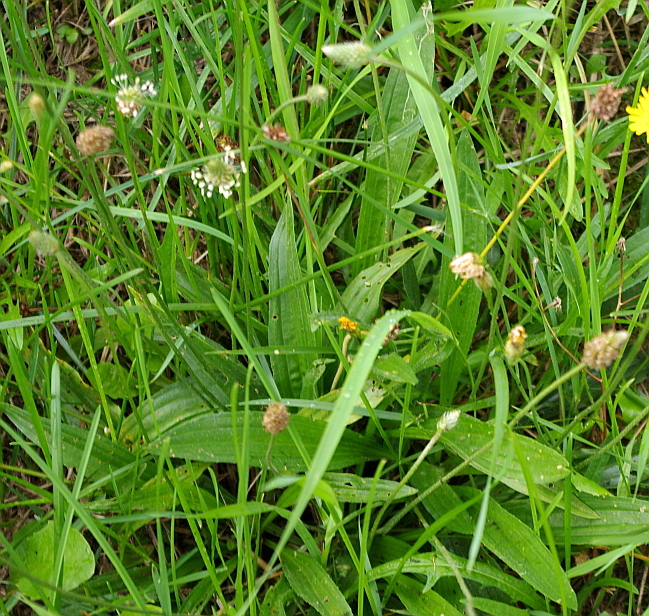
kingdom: Plantae
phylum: Tracheophyta
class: Magnoliopsida
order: Lamiales
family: Plantaginaceae
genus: Plantago
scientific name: Plantago lanceolata
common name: Ribwort plantain
